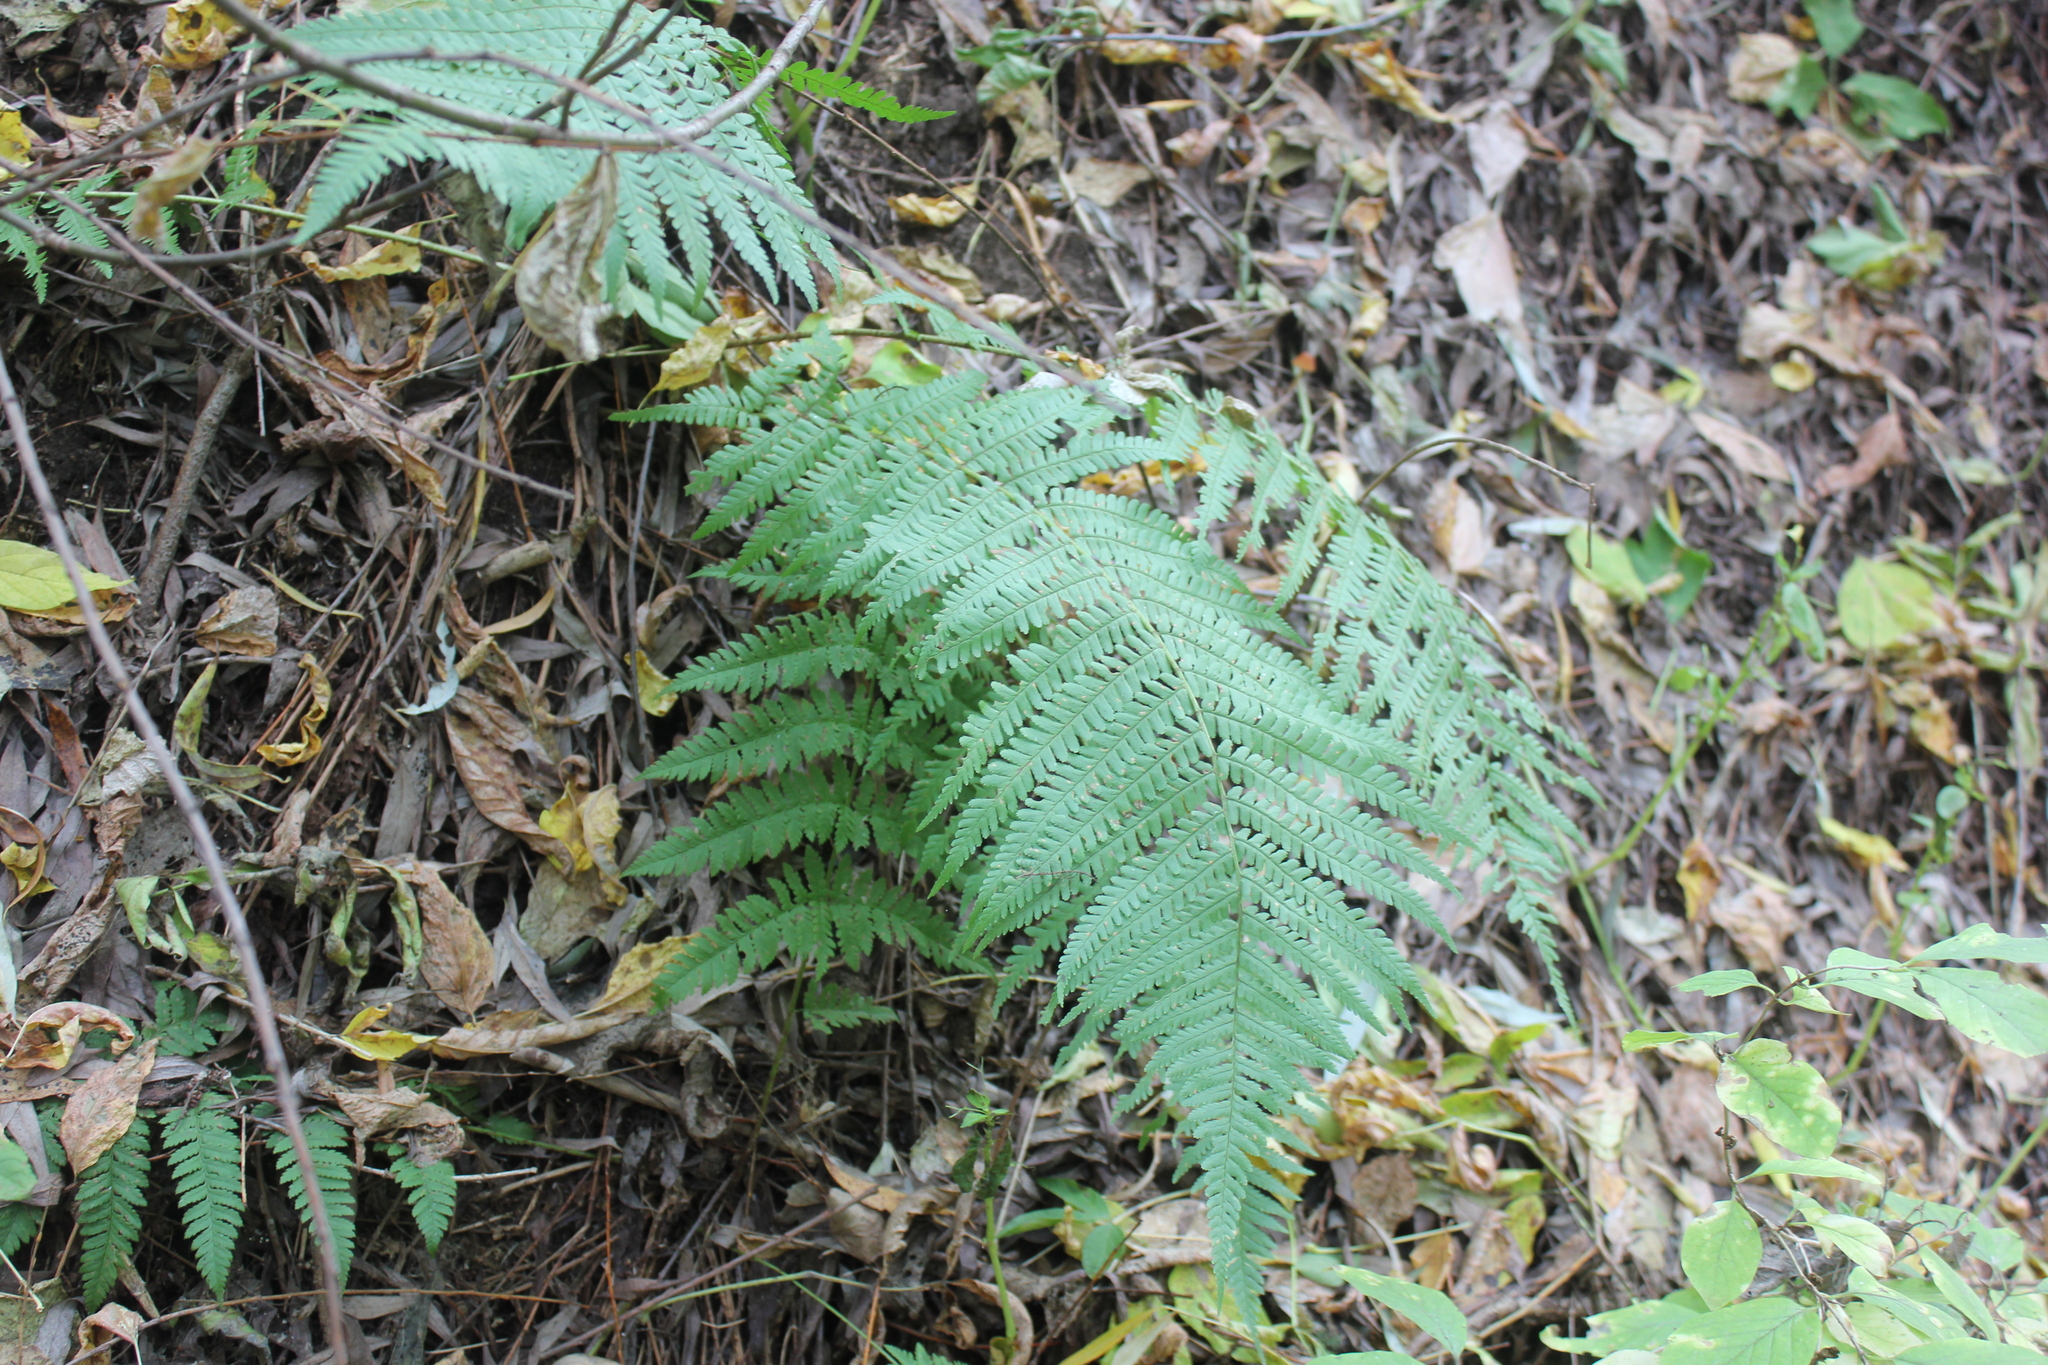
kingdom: Plantae
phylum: Tracheophyta
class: Polypodiopsida
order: Polypodiales
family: Dryopteridaceae
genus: Dryopteris
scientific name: Dryopteris filix-mas
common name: Male fern
